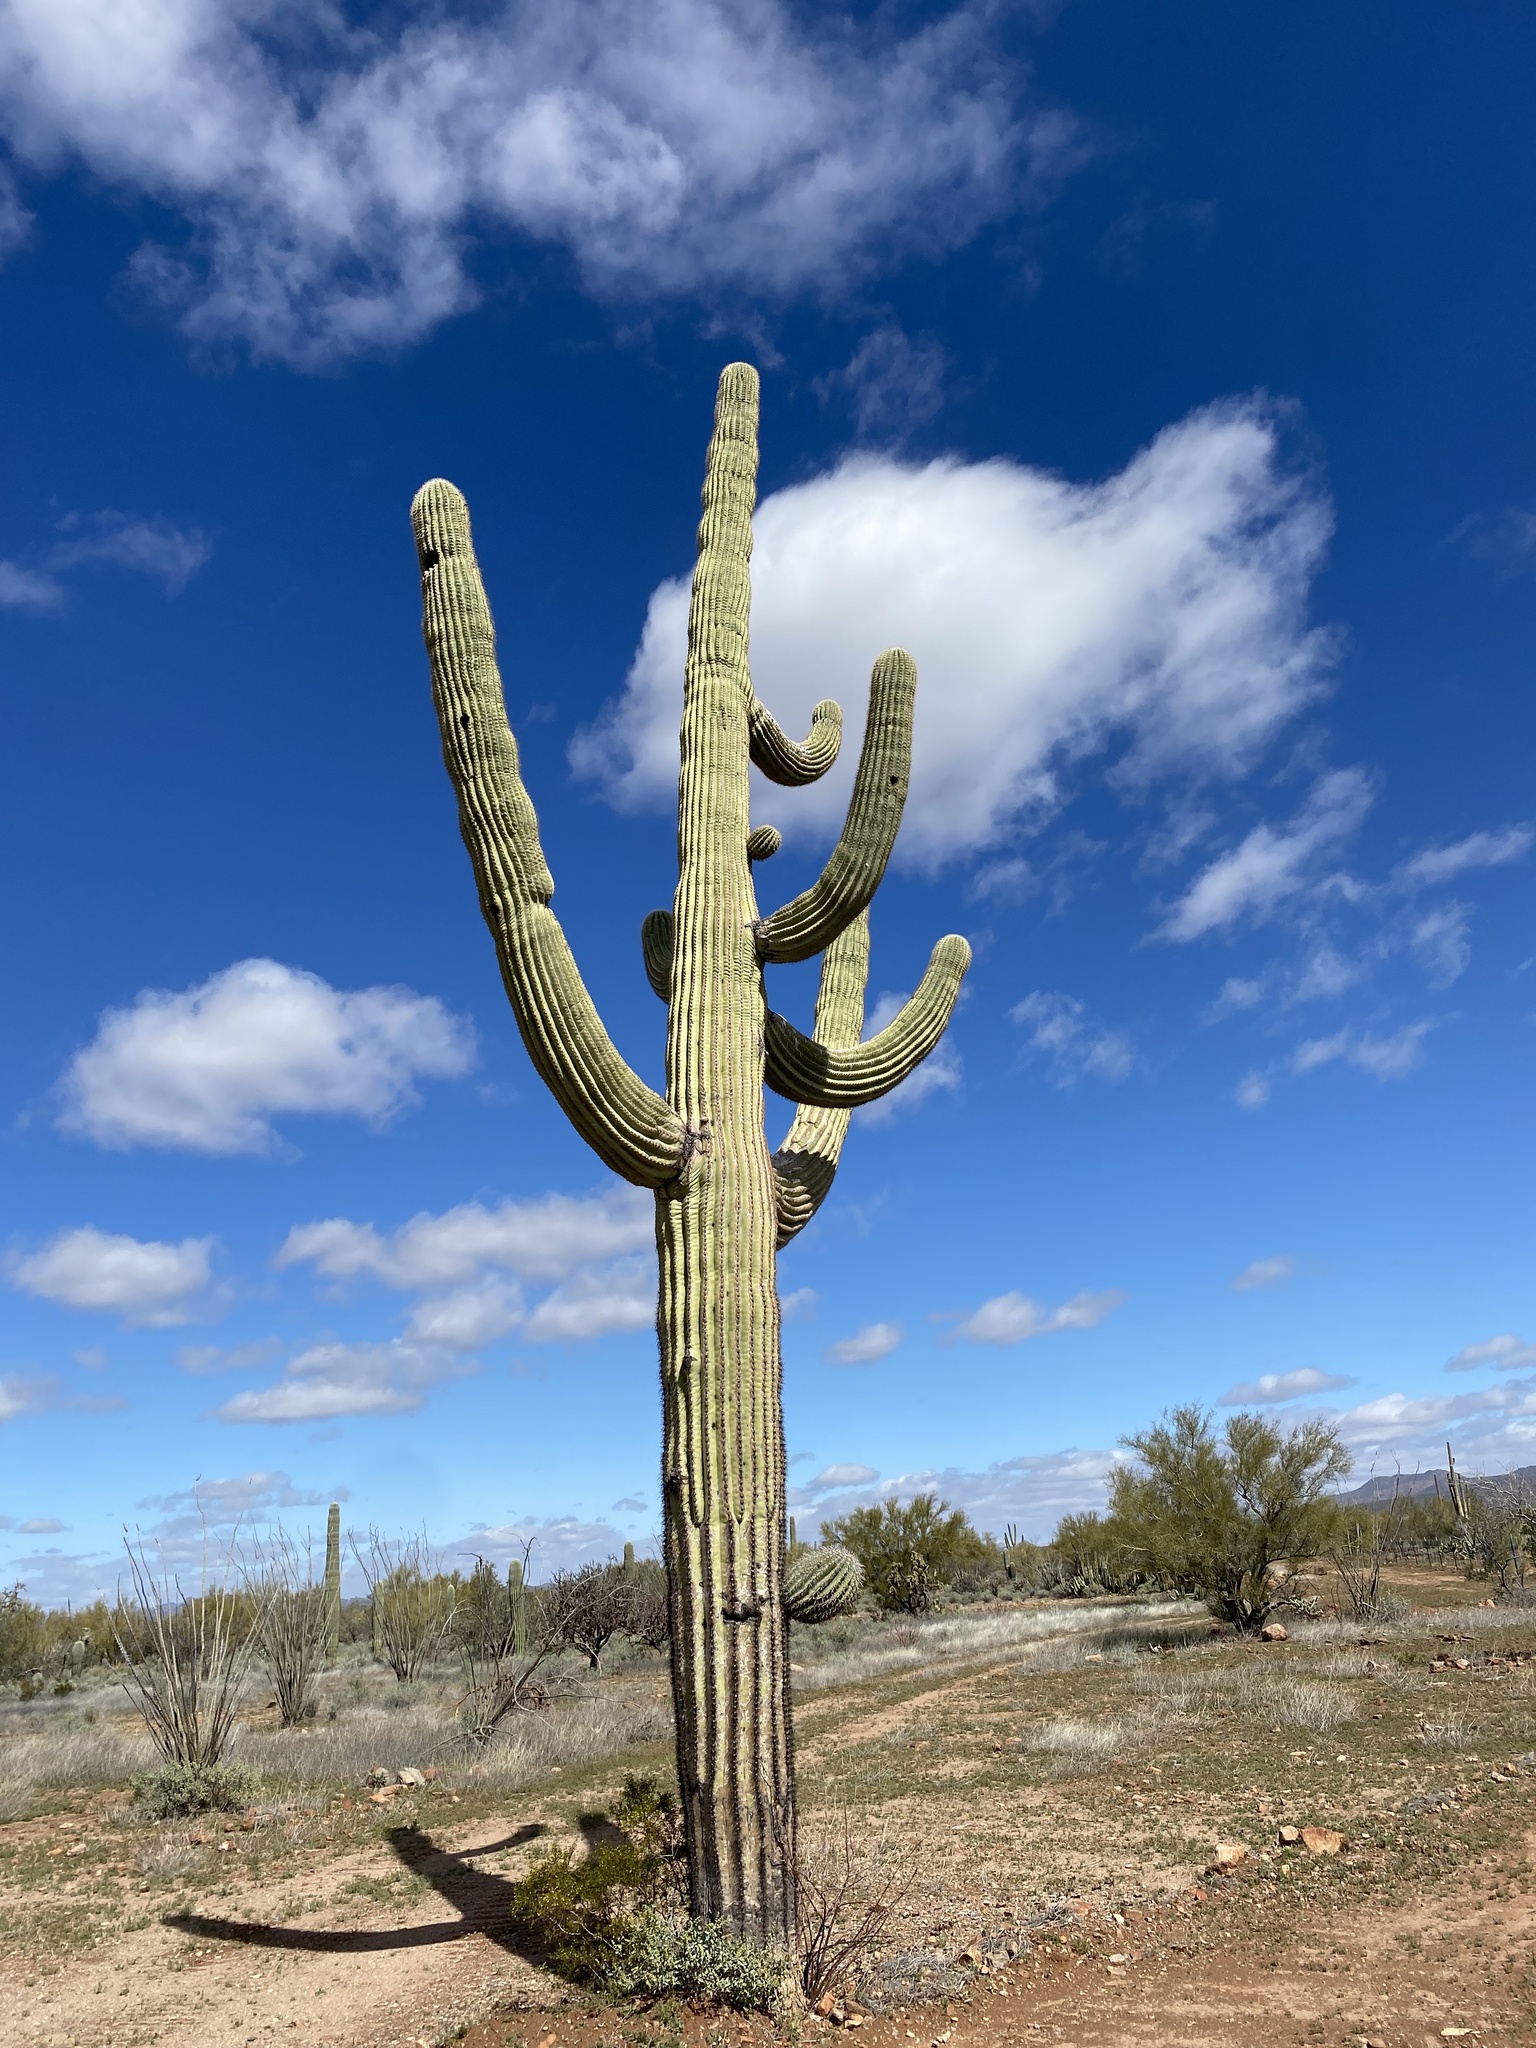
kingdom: Plantae
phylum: Tracheophyta
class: Magnoliopsida
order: Caryophyllales
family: Cactaceae
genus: Carnegiea
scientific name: Carnegiea gigantea
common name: Saguaro
